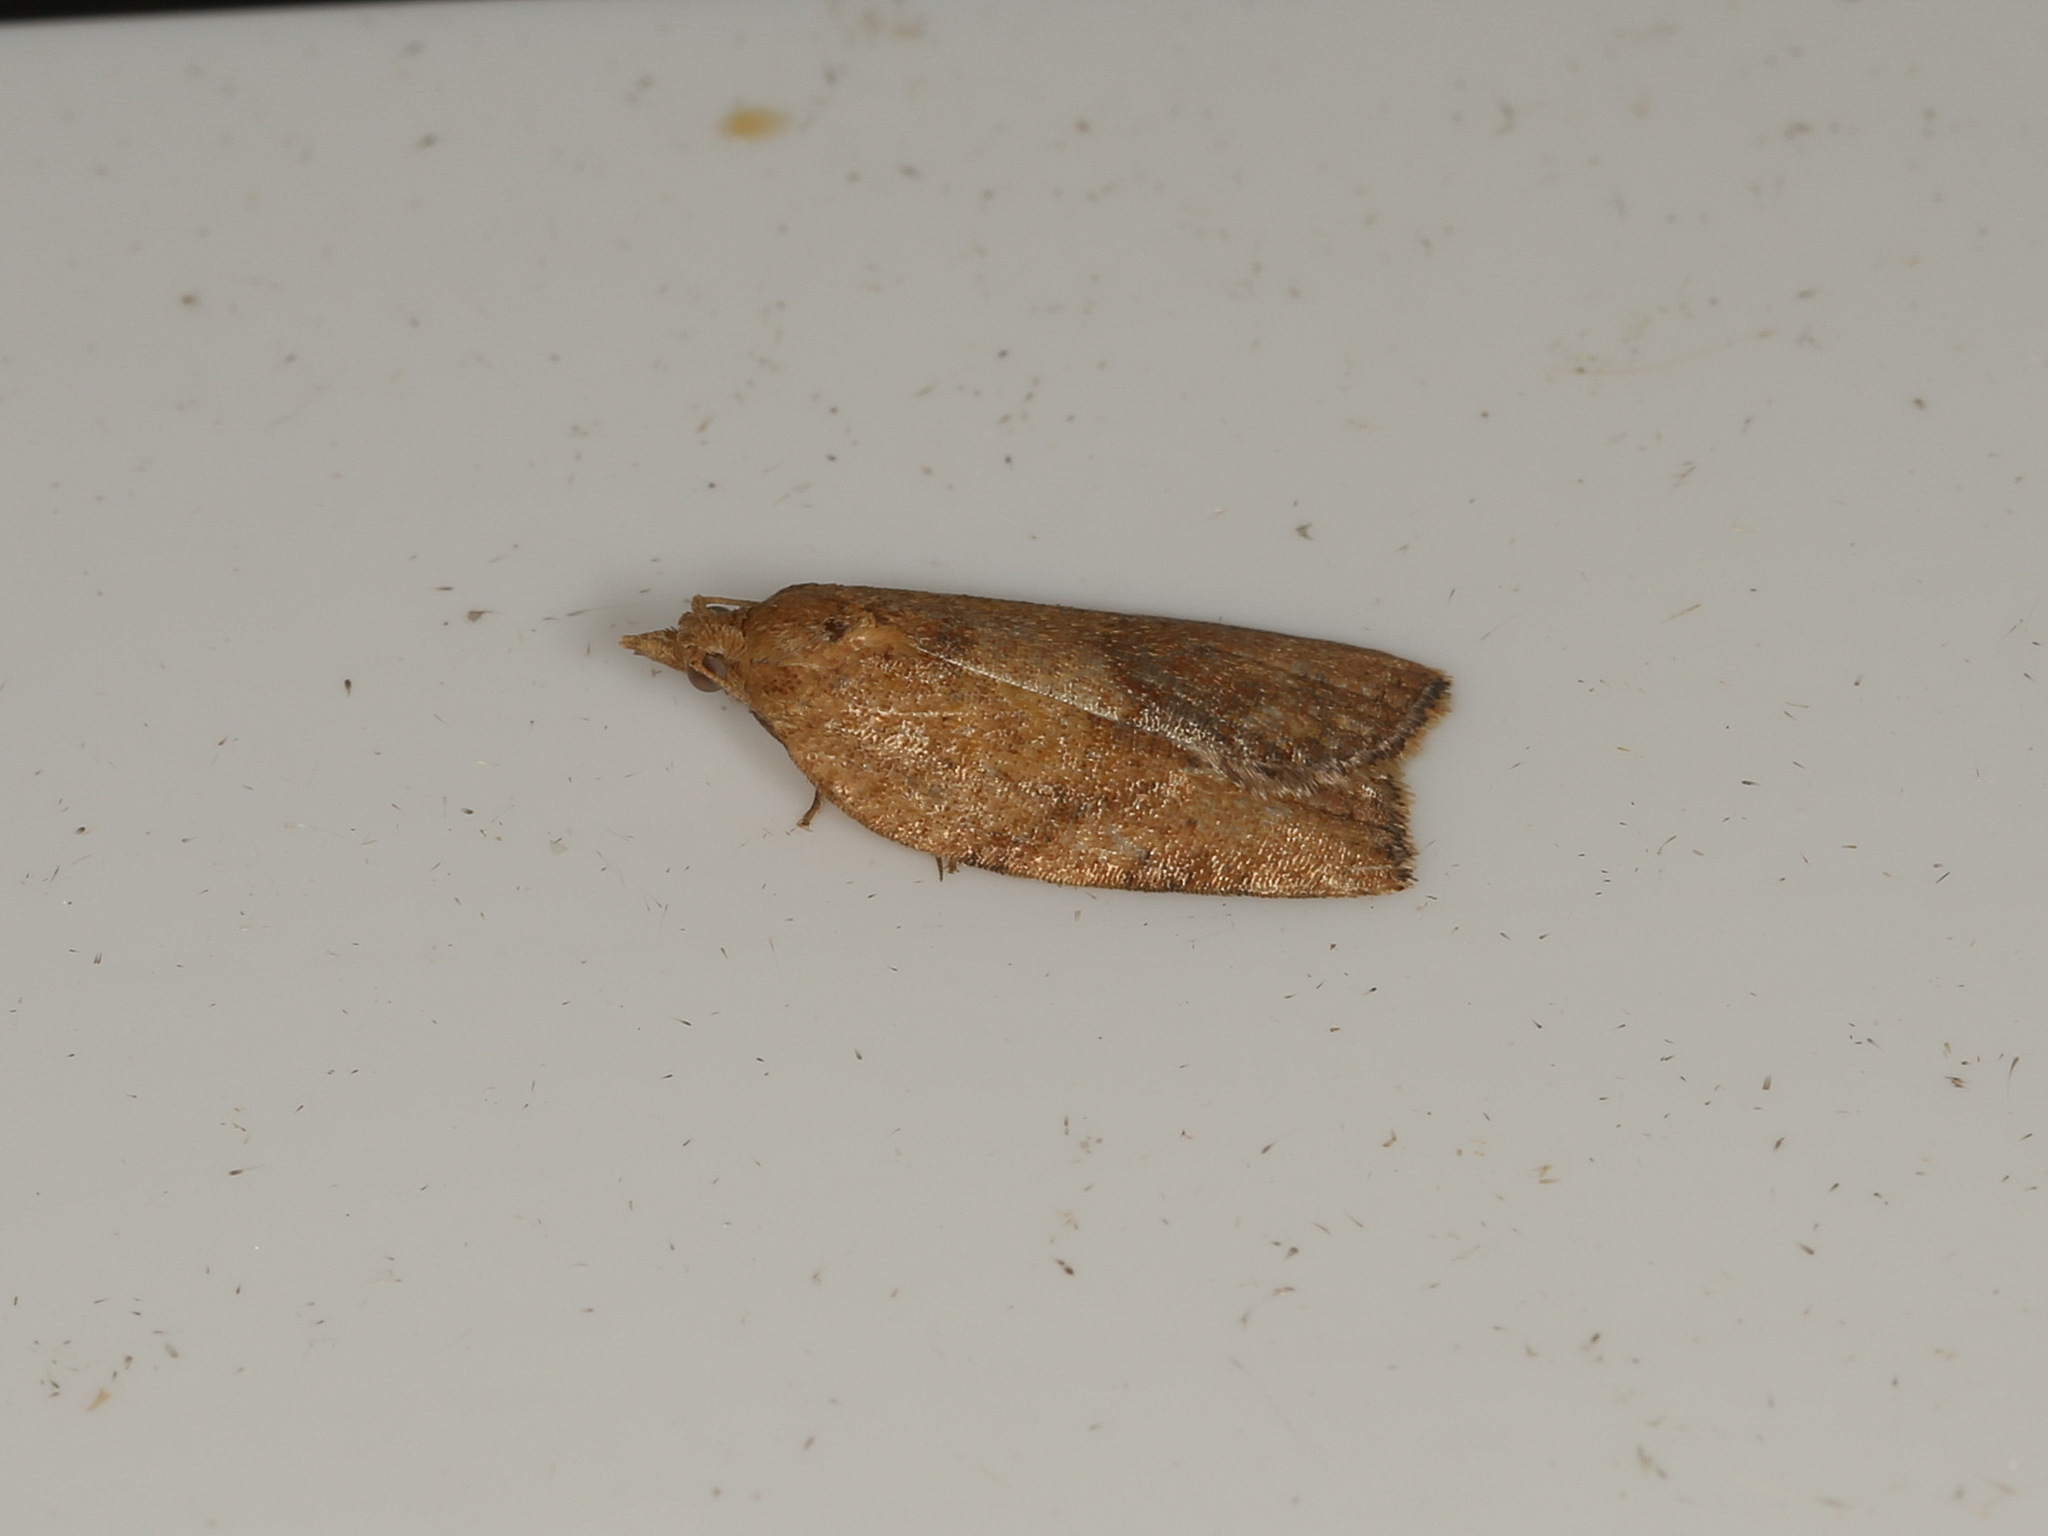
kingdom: Animalia
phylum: Arthropoda
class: Insecta
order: Lepidoptera
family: Tortricidae
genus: Epiphyas
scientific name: Epiphyas postvittana
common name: Light brown apple moth
